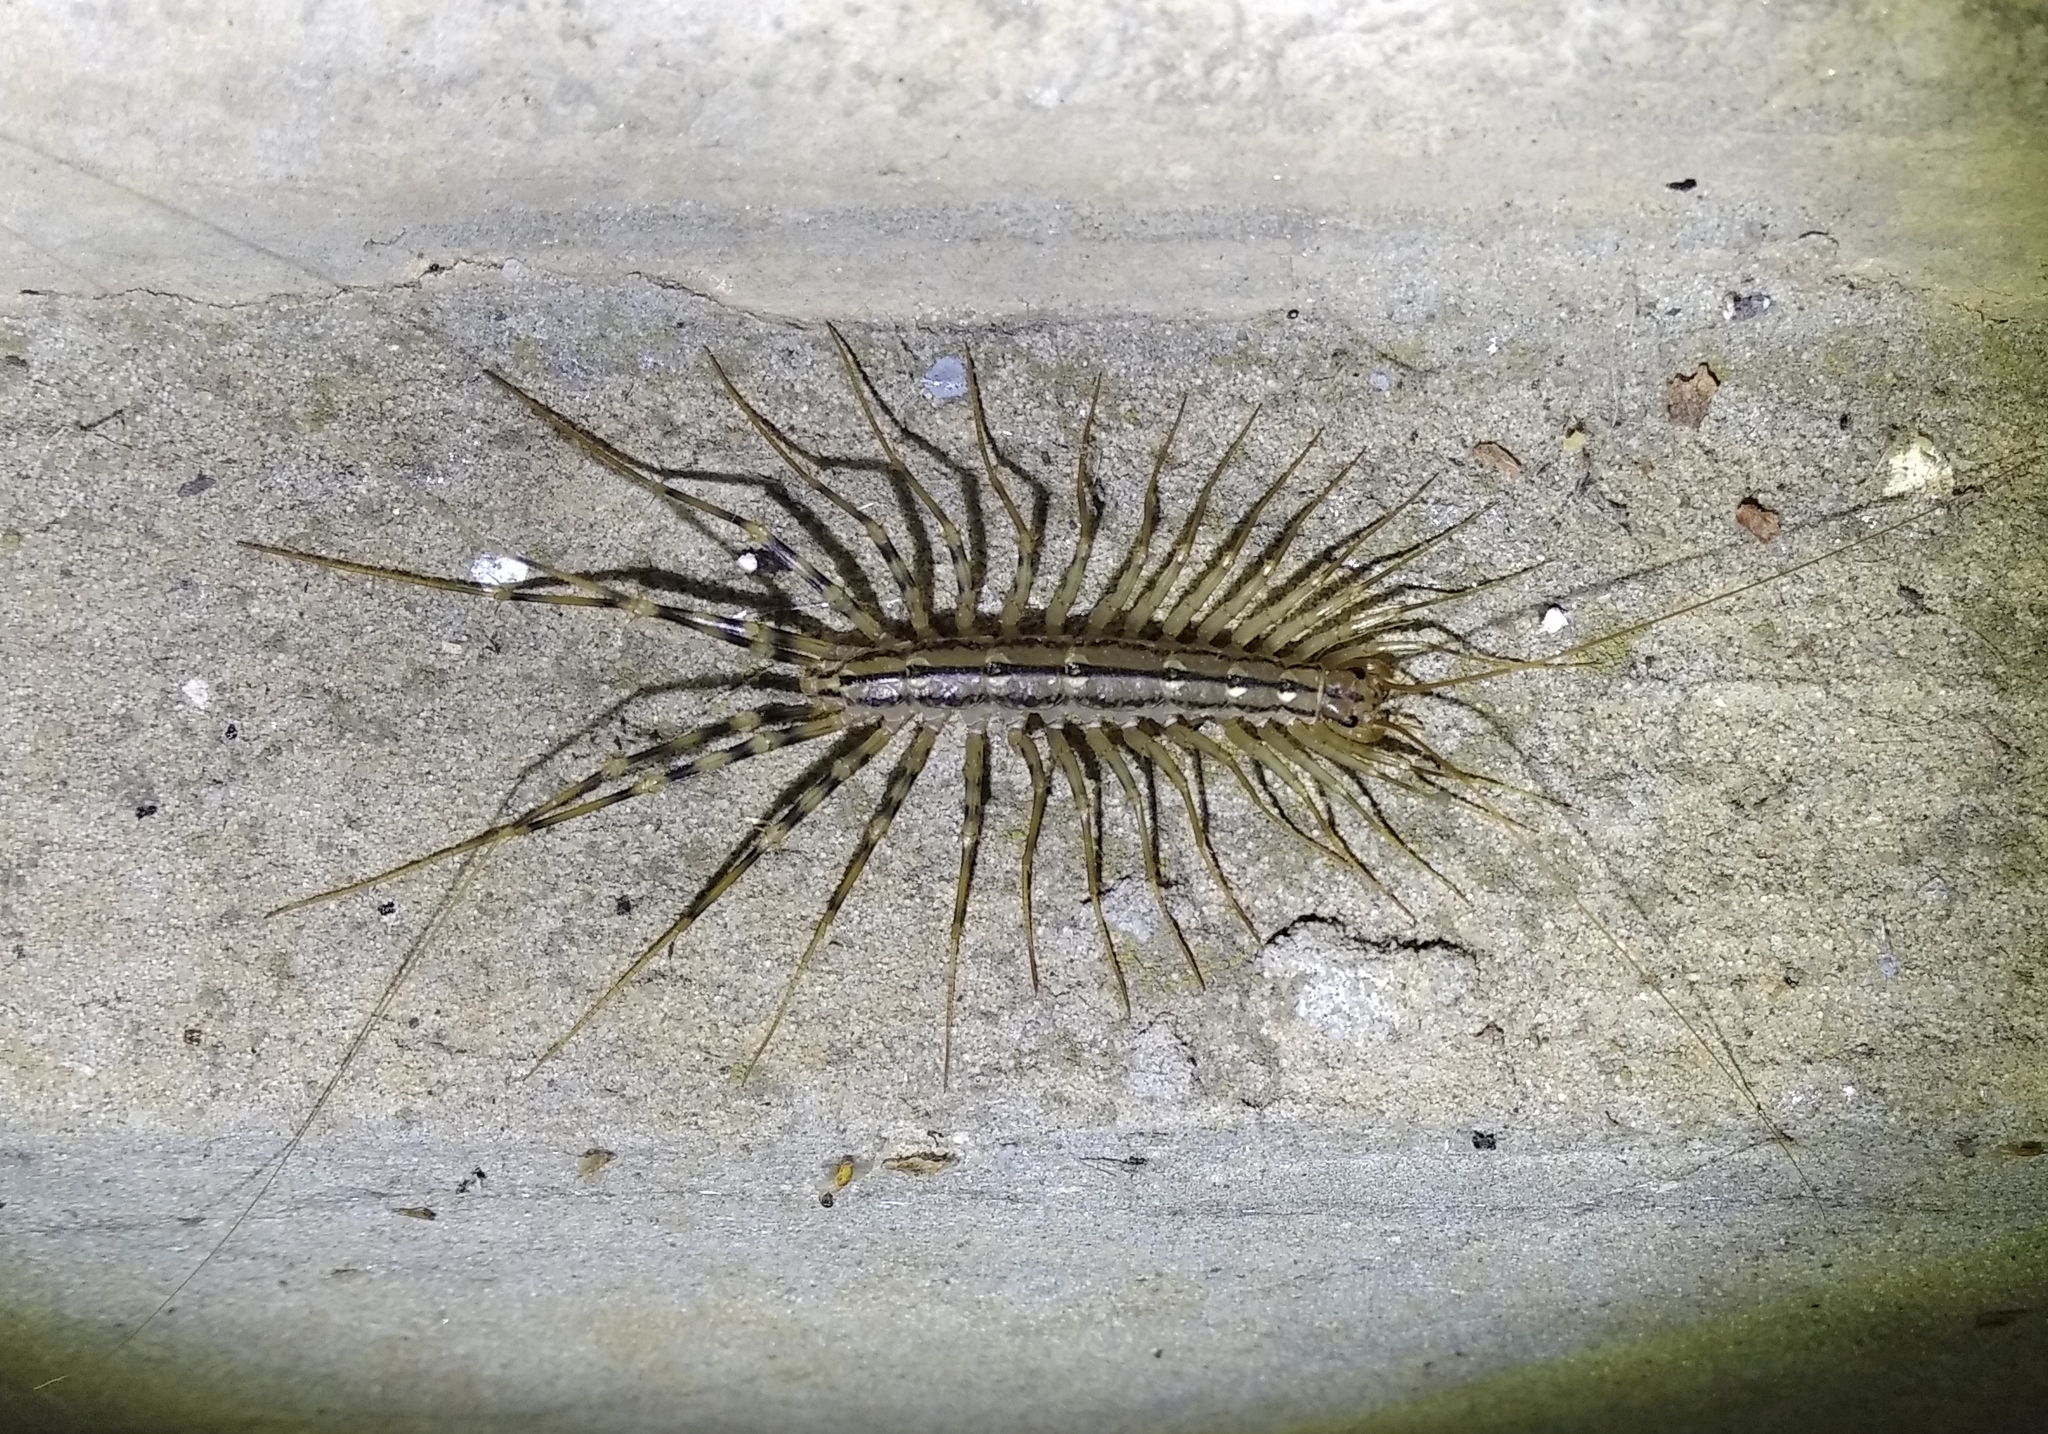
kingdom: Animalia
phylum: Arthropoda
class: Chilopoda
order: Scutigeromorpha
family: Scutigeridae
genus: Scutigera
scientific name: Scutigera coleoptrata
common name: House centipede
